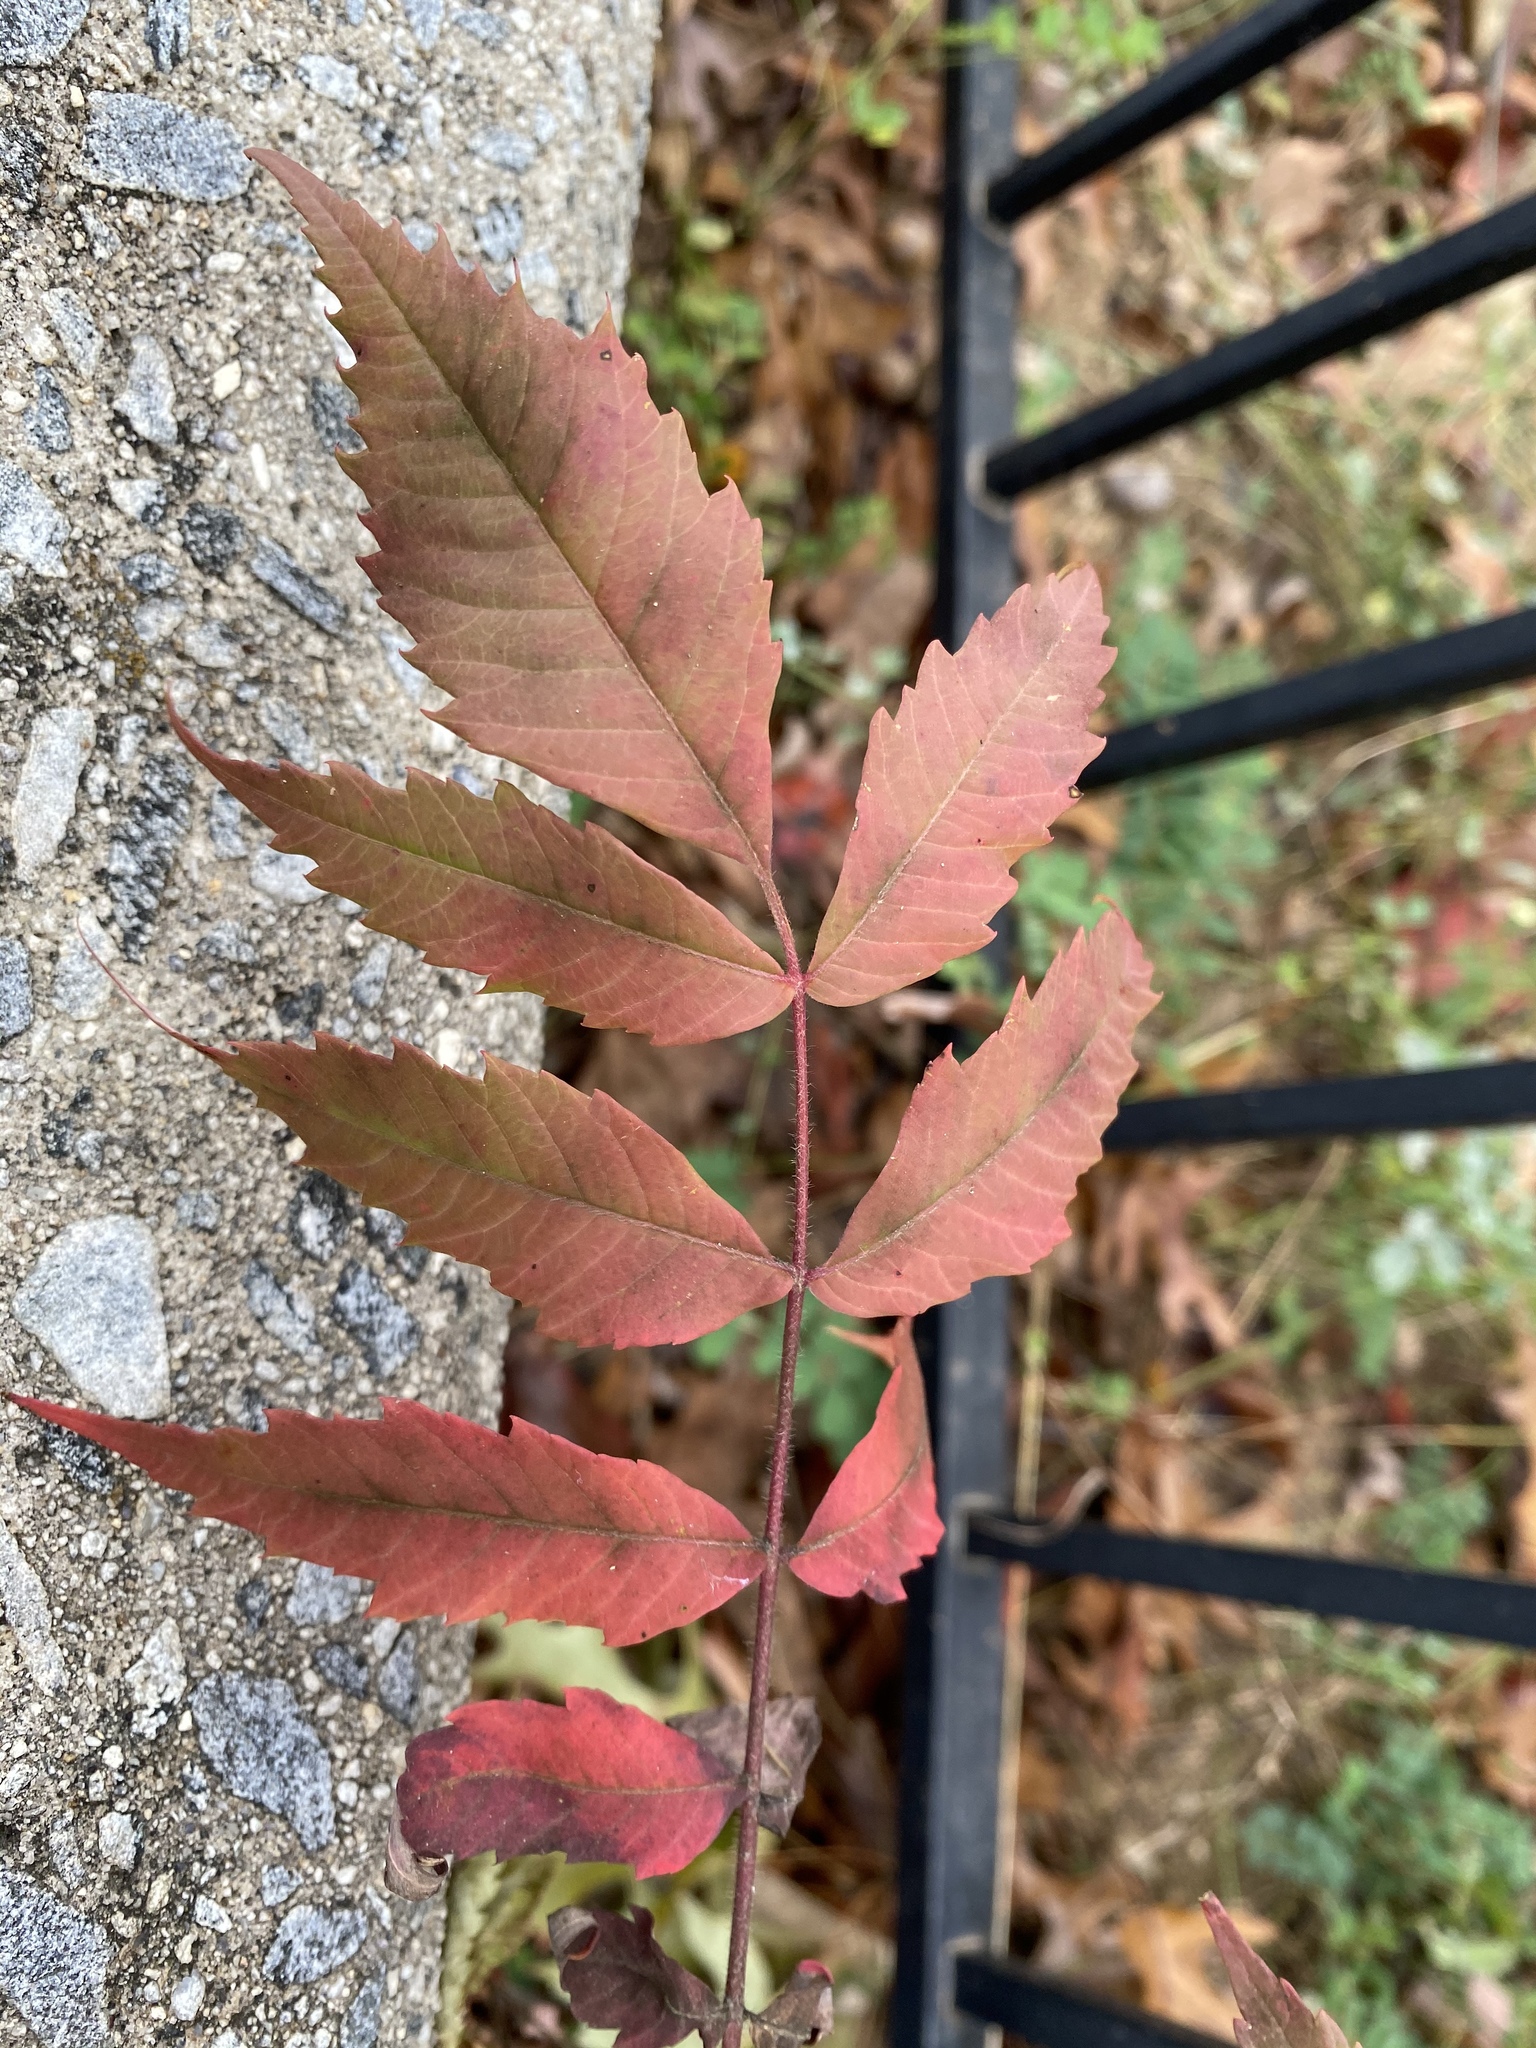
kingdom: Plantae
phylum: Tracheophyta
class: Magnoliopsida
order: Sapindales
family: Anacardiaceae
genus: Rhus
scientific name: Rhus typhina
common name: Staghorn sumac
